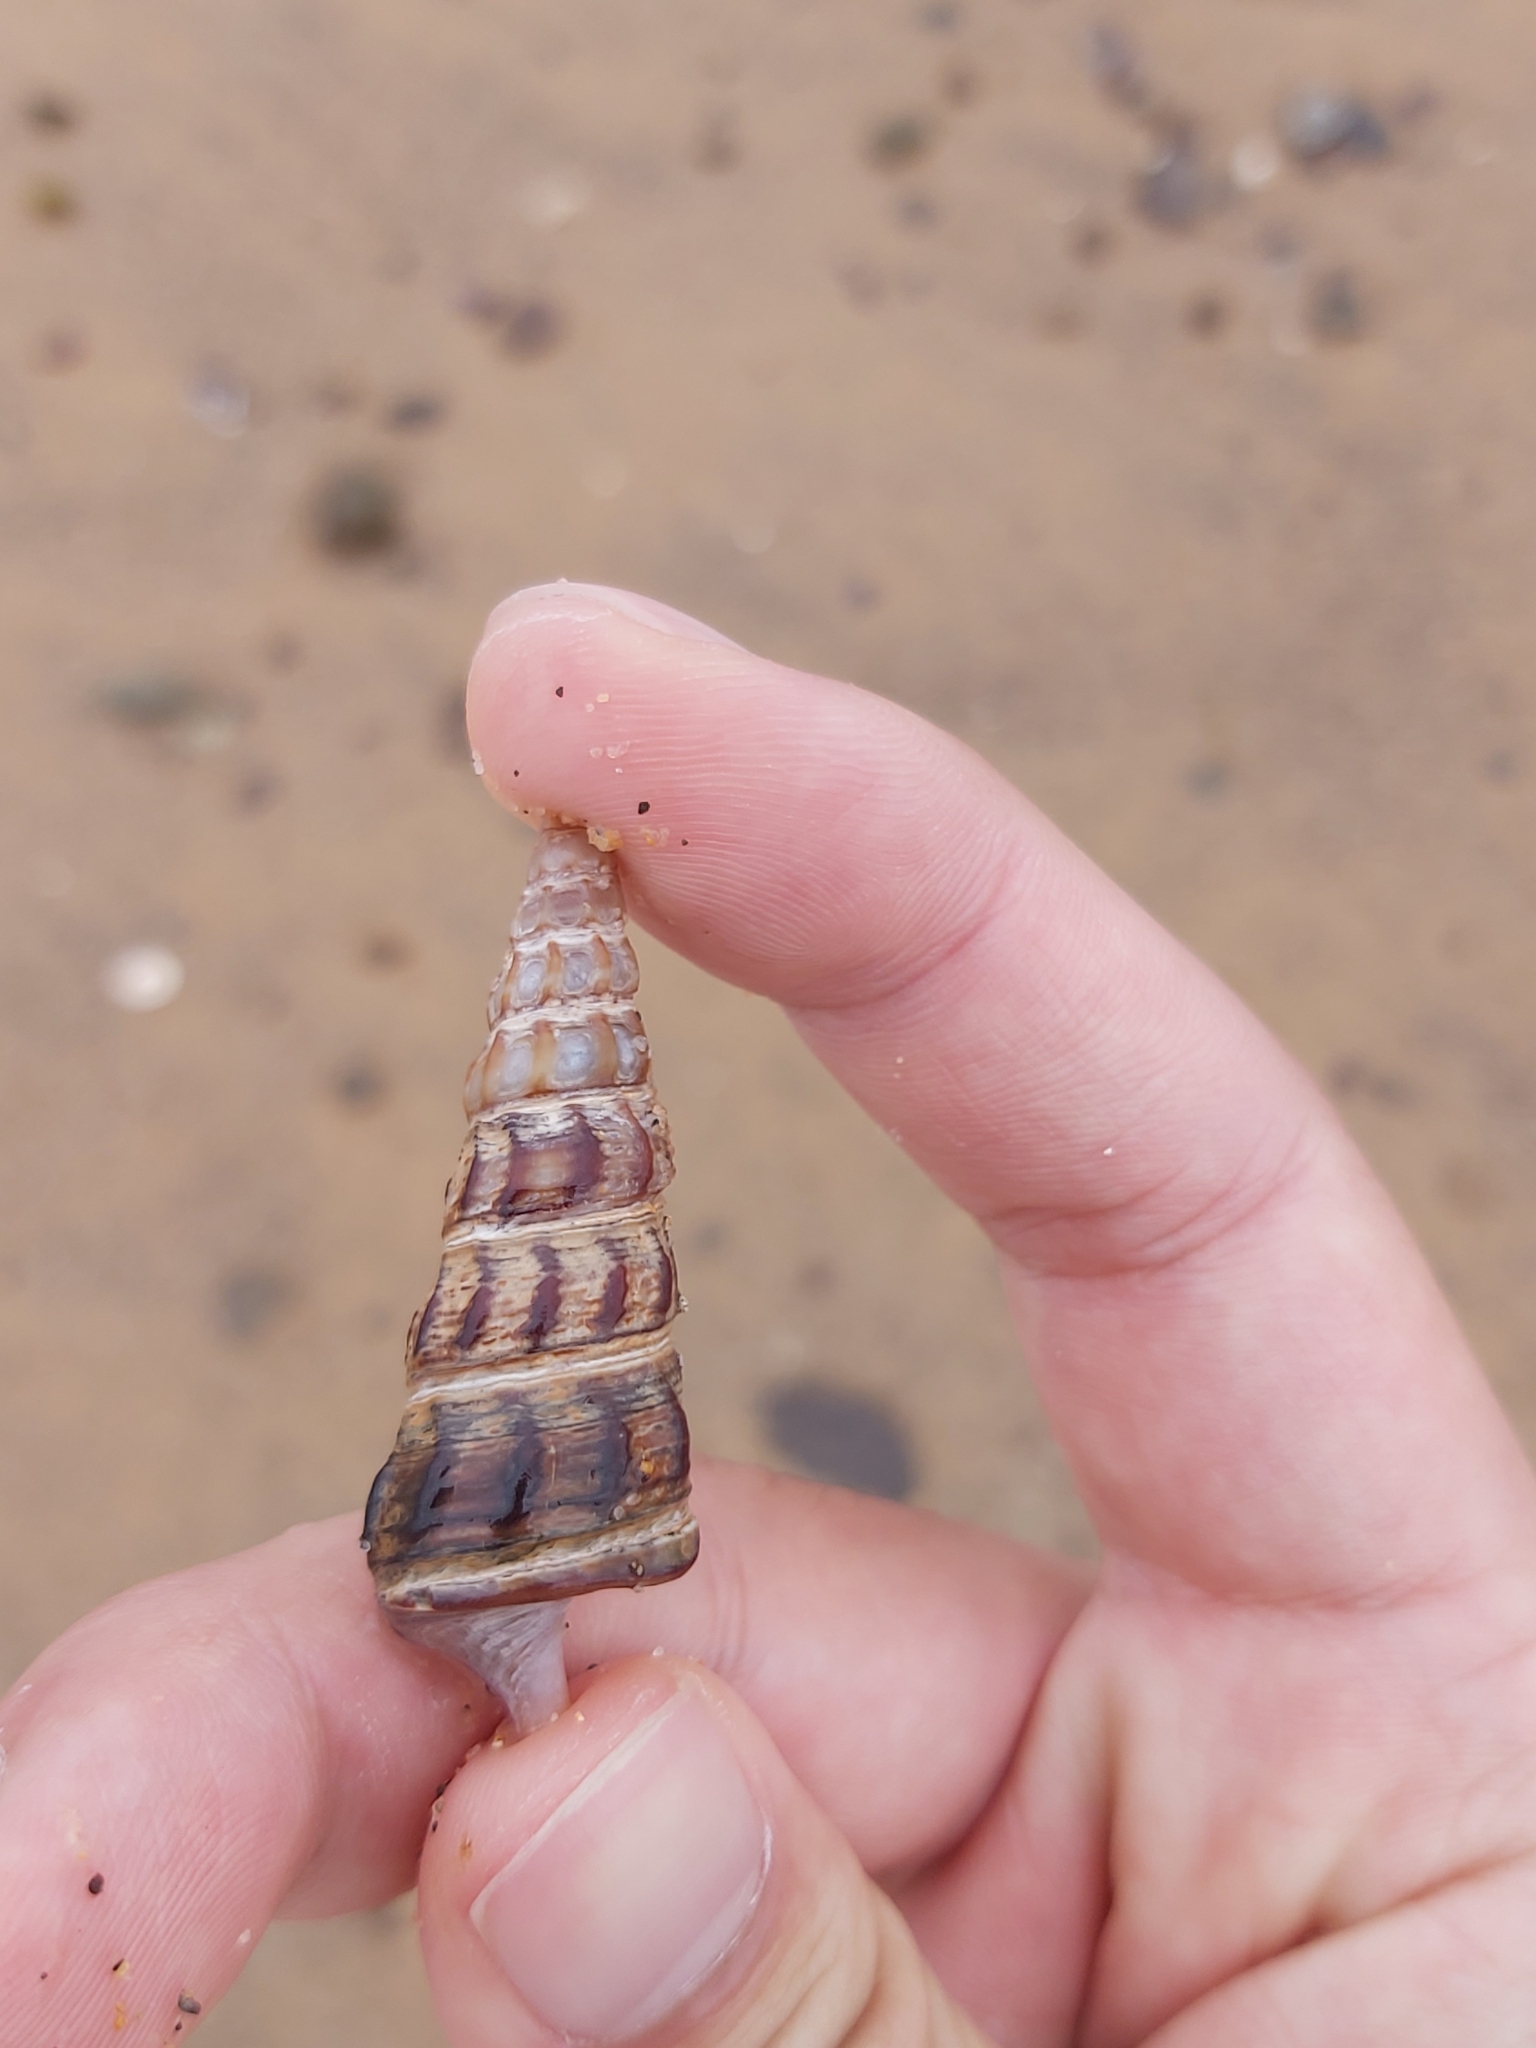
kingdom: Animalia
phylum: Mollusca
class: Gastropoda
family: Batillariidae
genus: Pyrazus
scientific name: Pyrazus ebeninus
